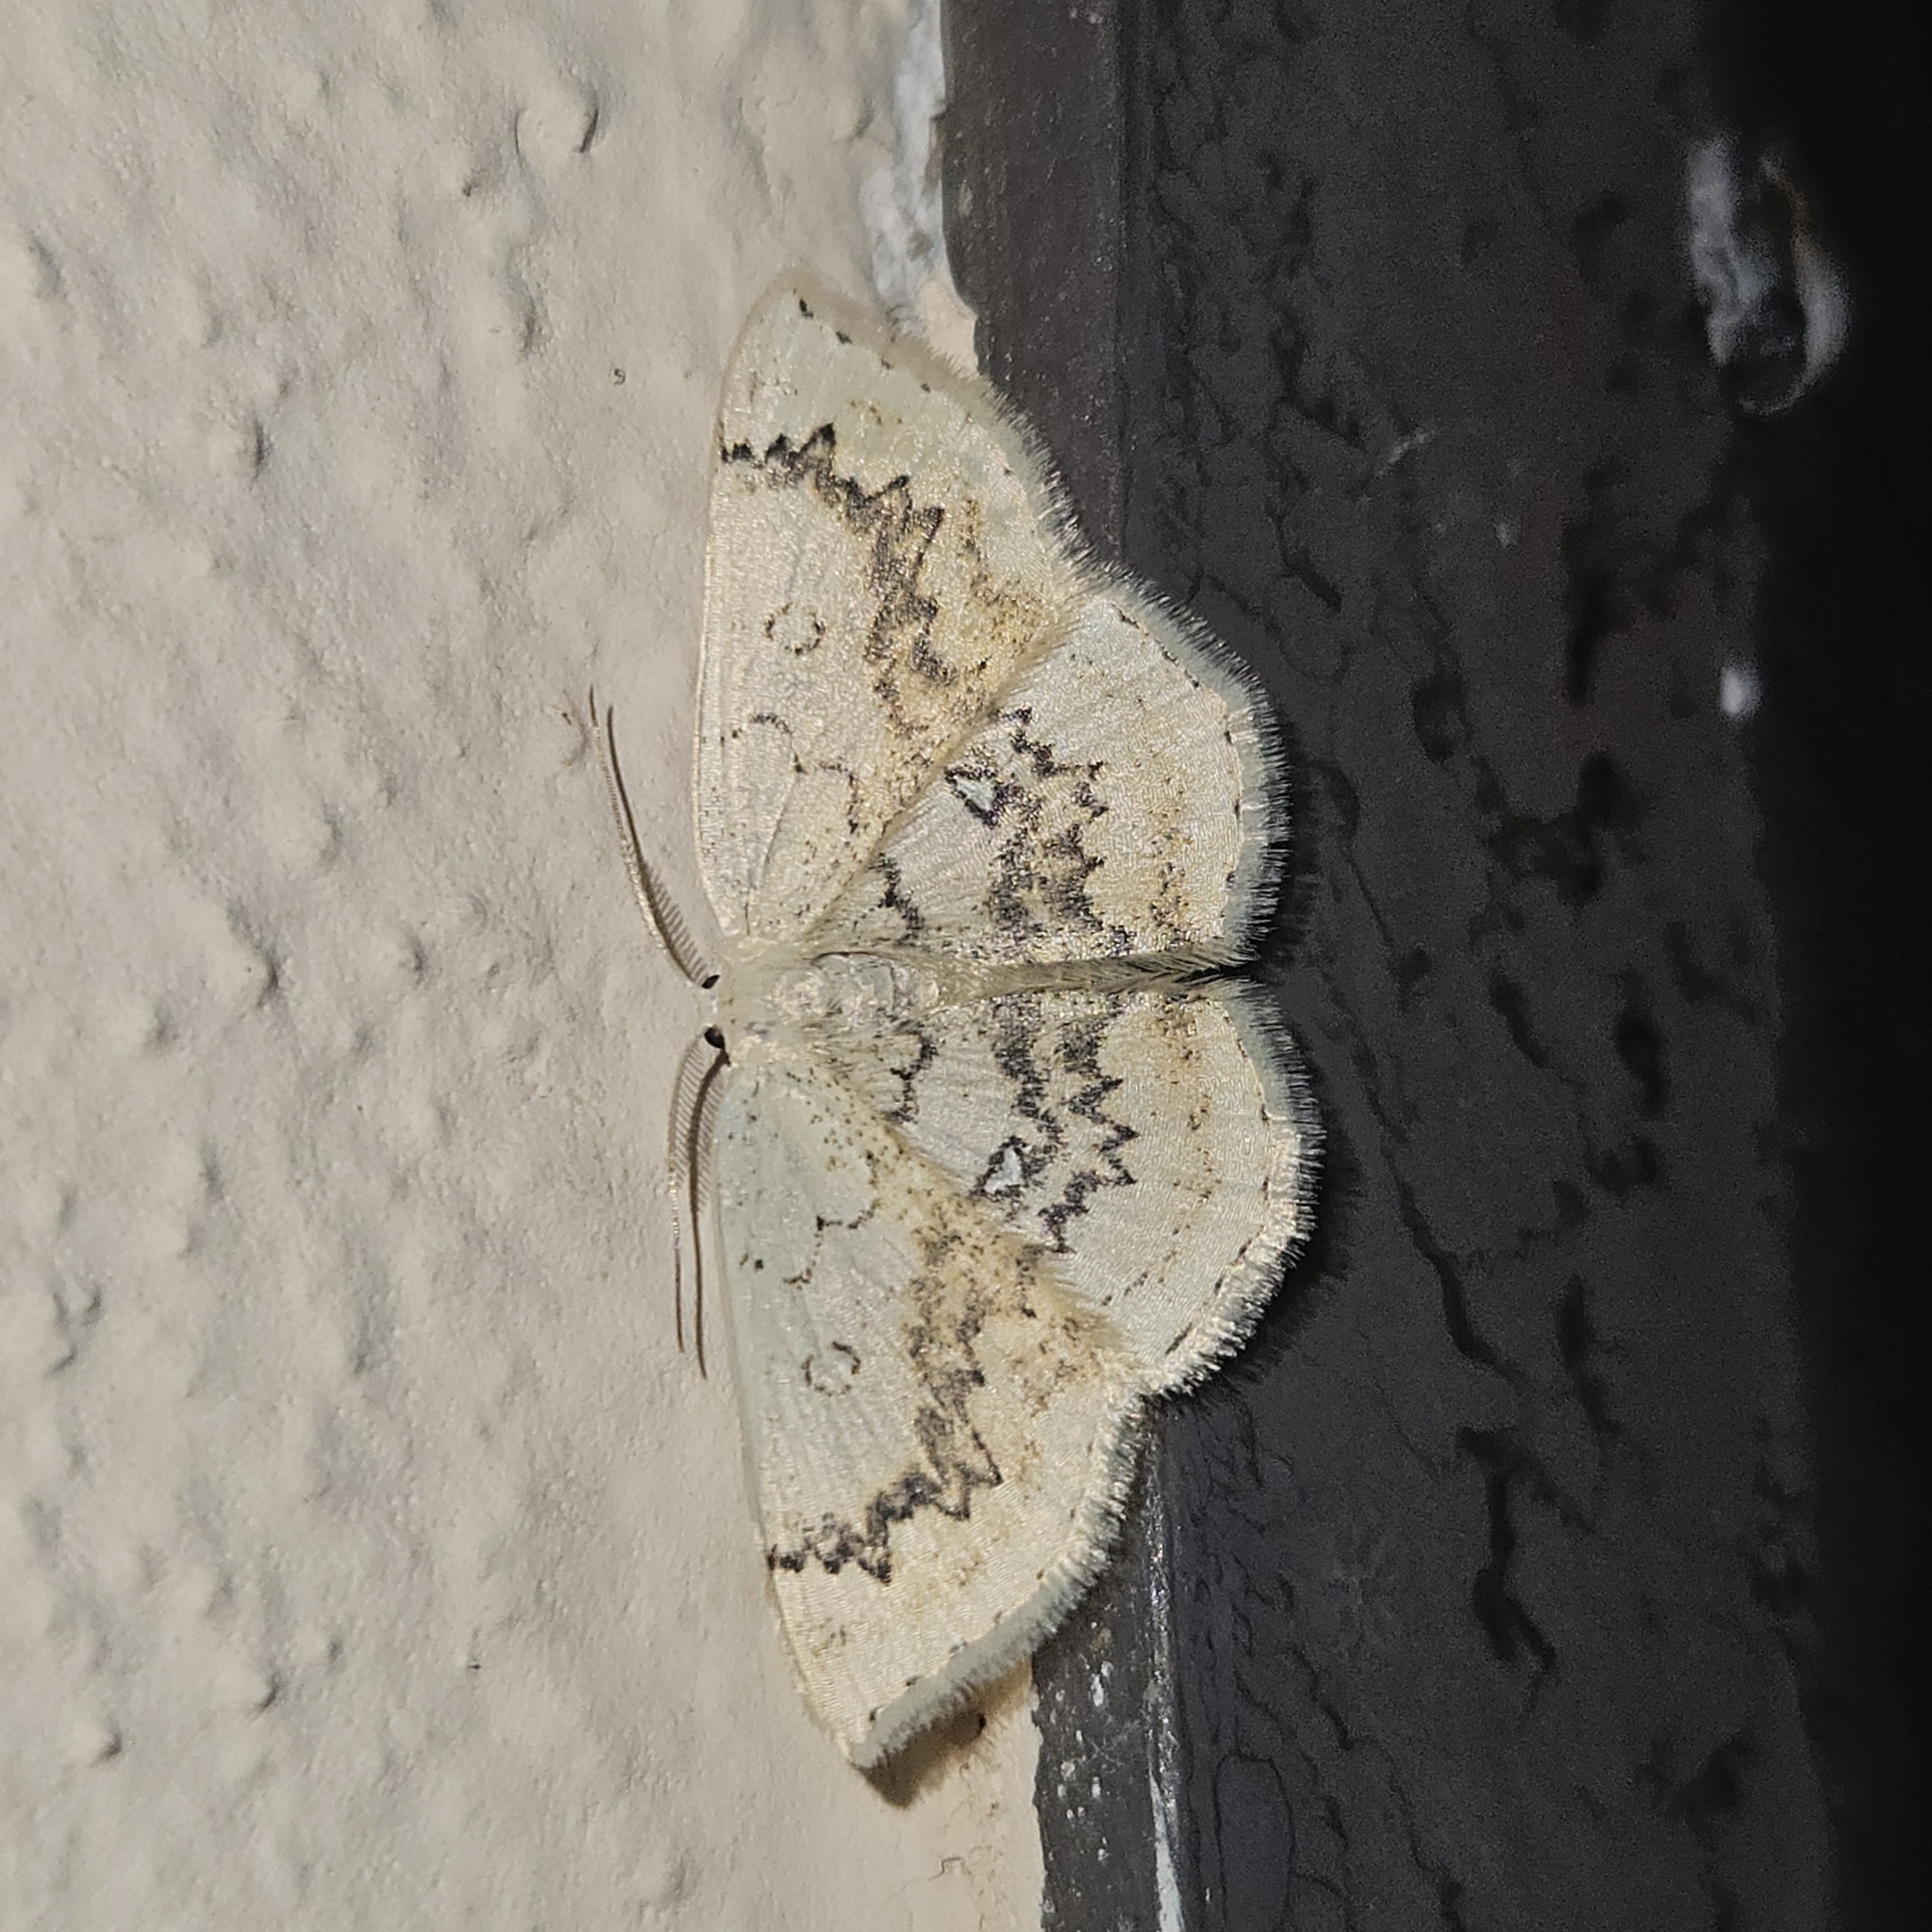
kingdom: Animalia
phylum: Arthropoda
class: Insecta
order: Lepidoptera
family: Geometridae
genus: Cyclophora
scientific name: Cyclophora annularia
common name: Mocha
